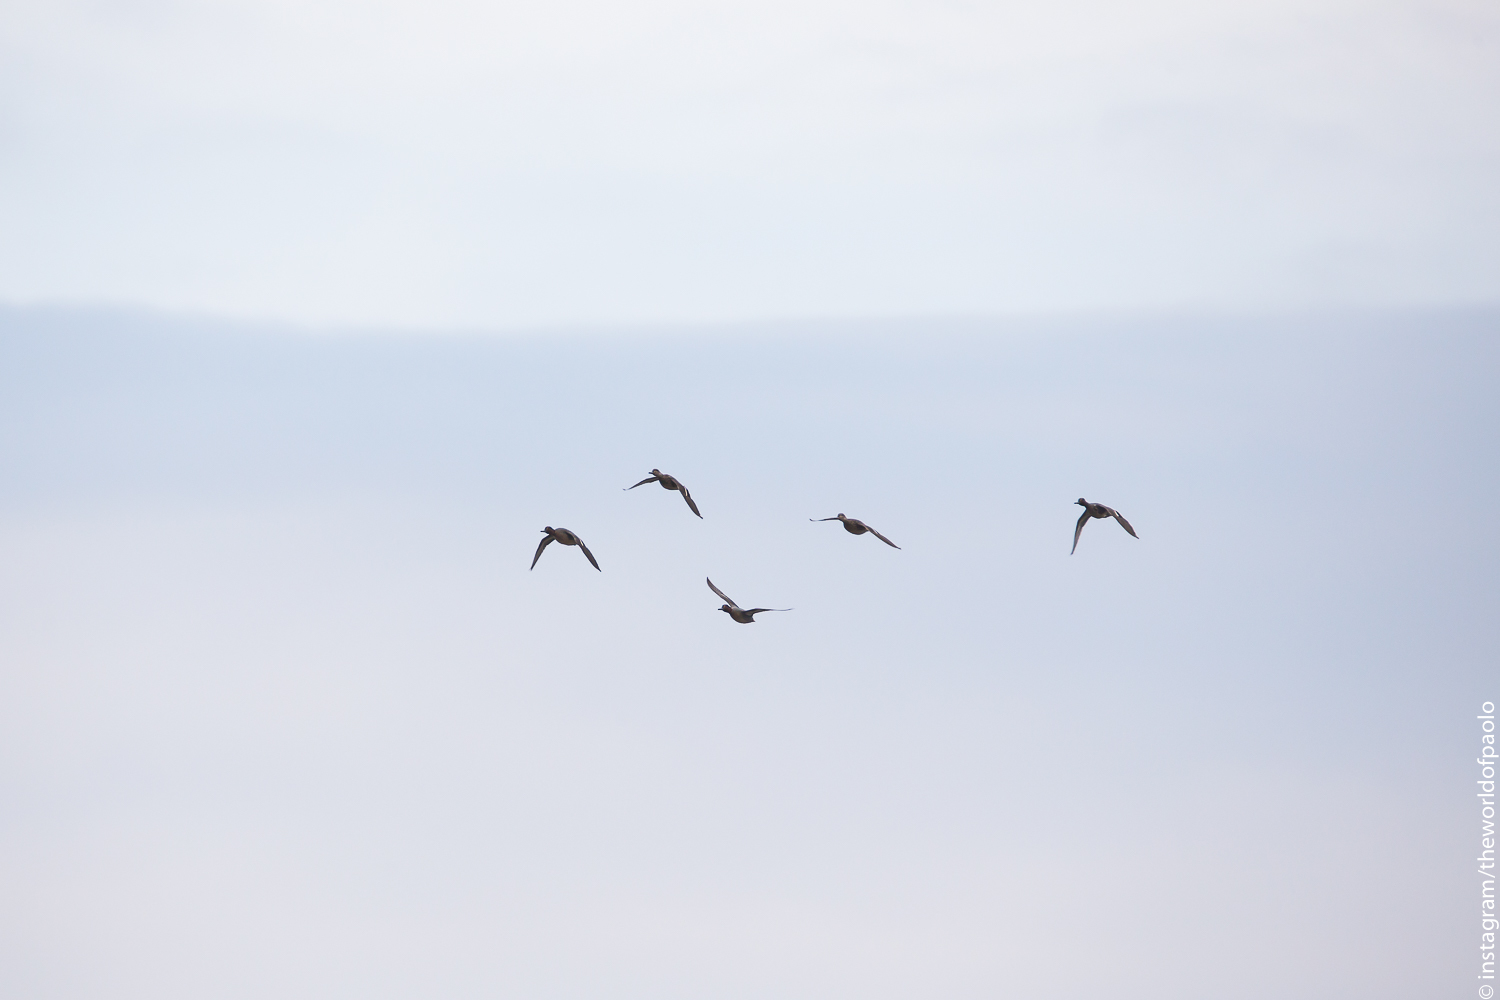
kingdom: Animalia
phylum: Chordata
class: Aves
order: Anseriformes
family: Anatidae
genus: Anas
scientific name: Anas crecca
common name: Eurasian teal
